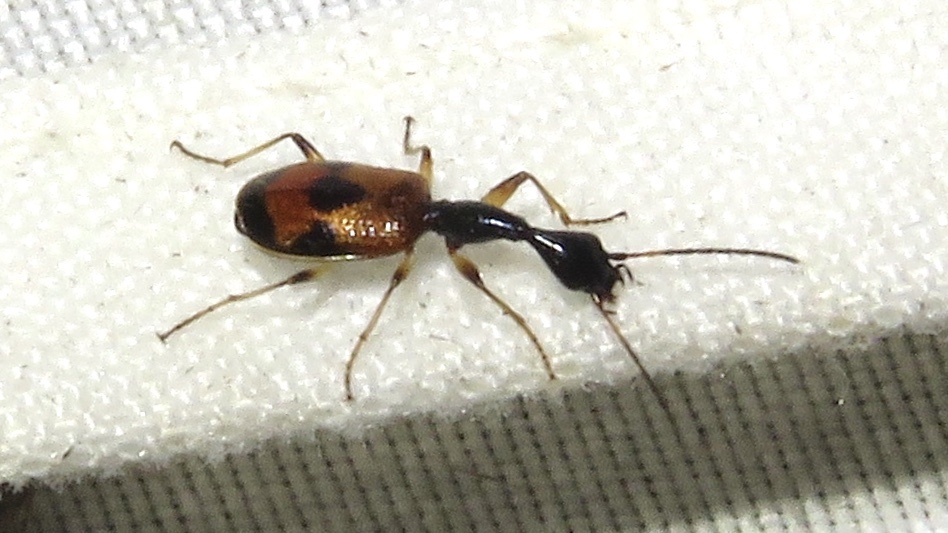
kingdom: Animalia
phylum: Arthropoda
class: Insecta
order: Coleoptera
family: Carabidae
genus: Colliuris
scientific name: Colliuris pensylvanica
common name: Long-necked ground beetle
